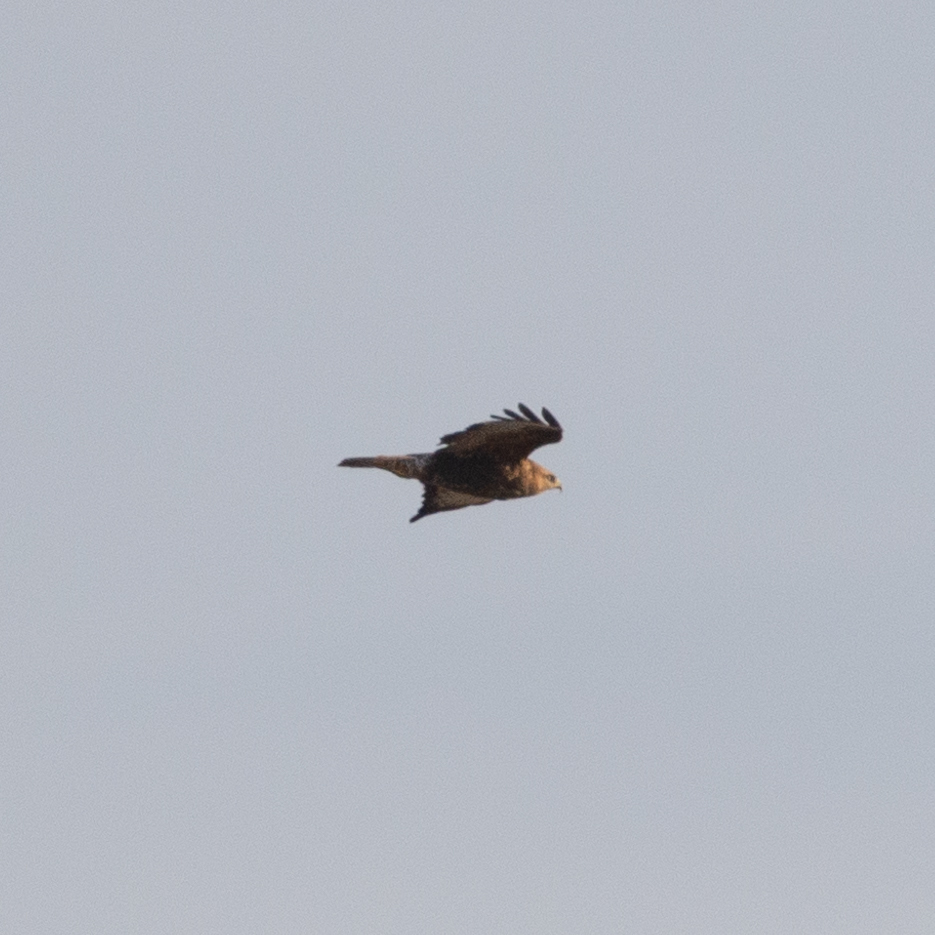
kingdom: Animalia
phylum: Chordata
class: Aves
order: Accipitriformes
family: Accipitridae
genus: Buteo
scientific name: Buteo buteo
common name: Common buzzard
